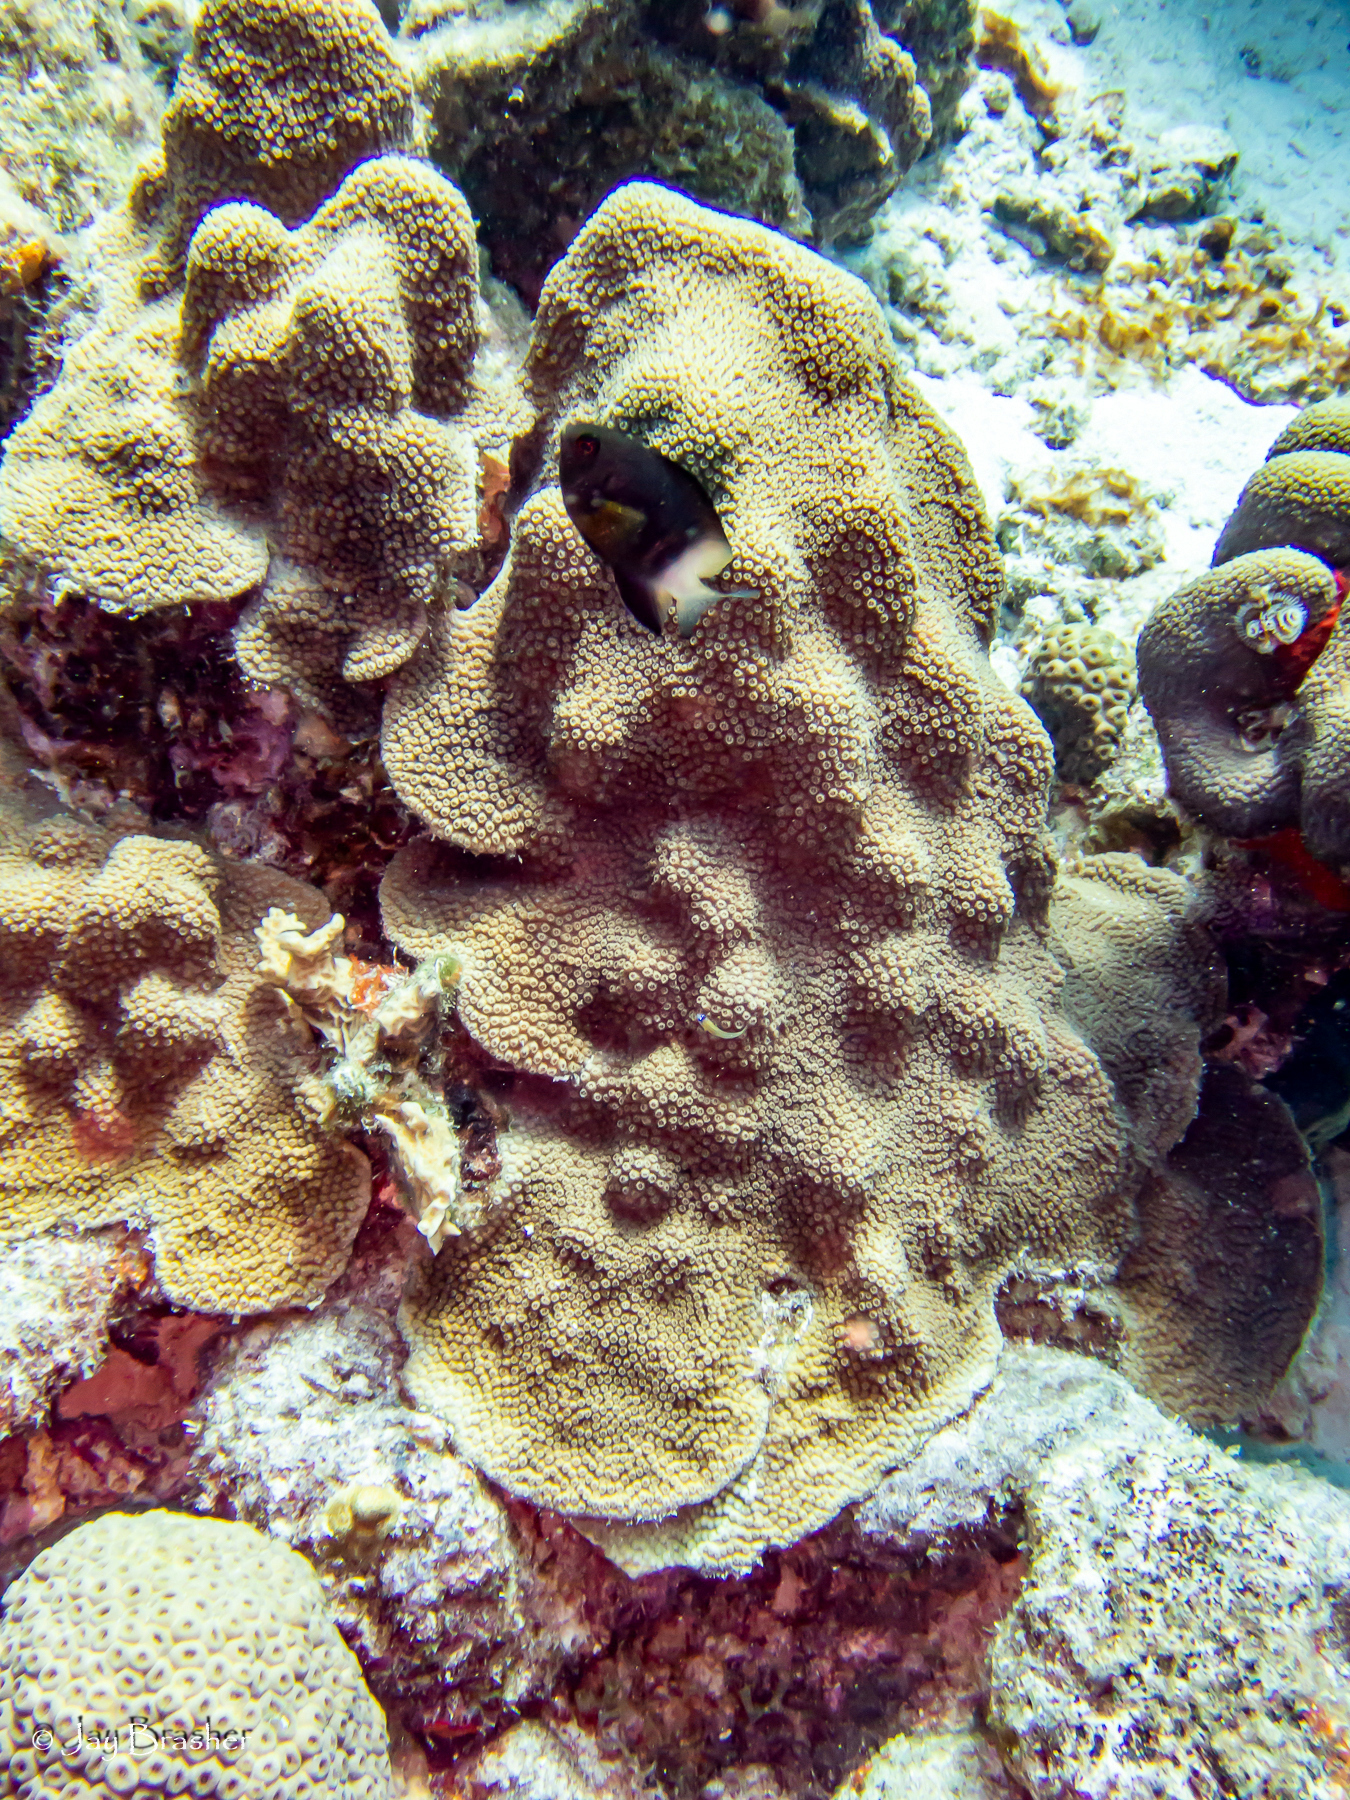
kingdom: Animalia
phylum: Chordata
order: Perciformes
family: Pomacentridae
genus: Stegastes
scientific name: Stegastes partitus
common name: Bicolor damselfish
